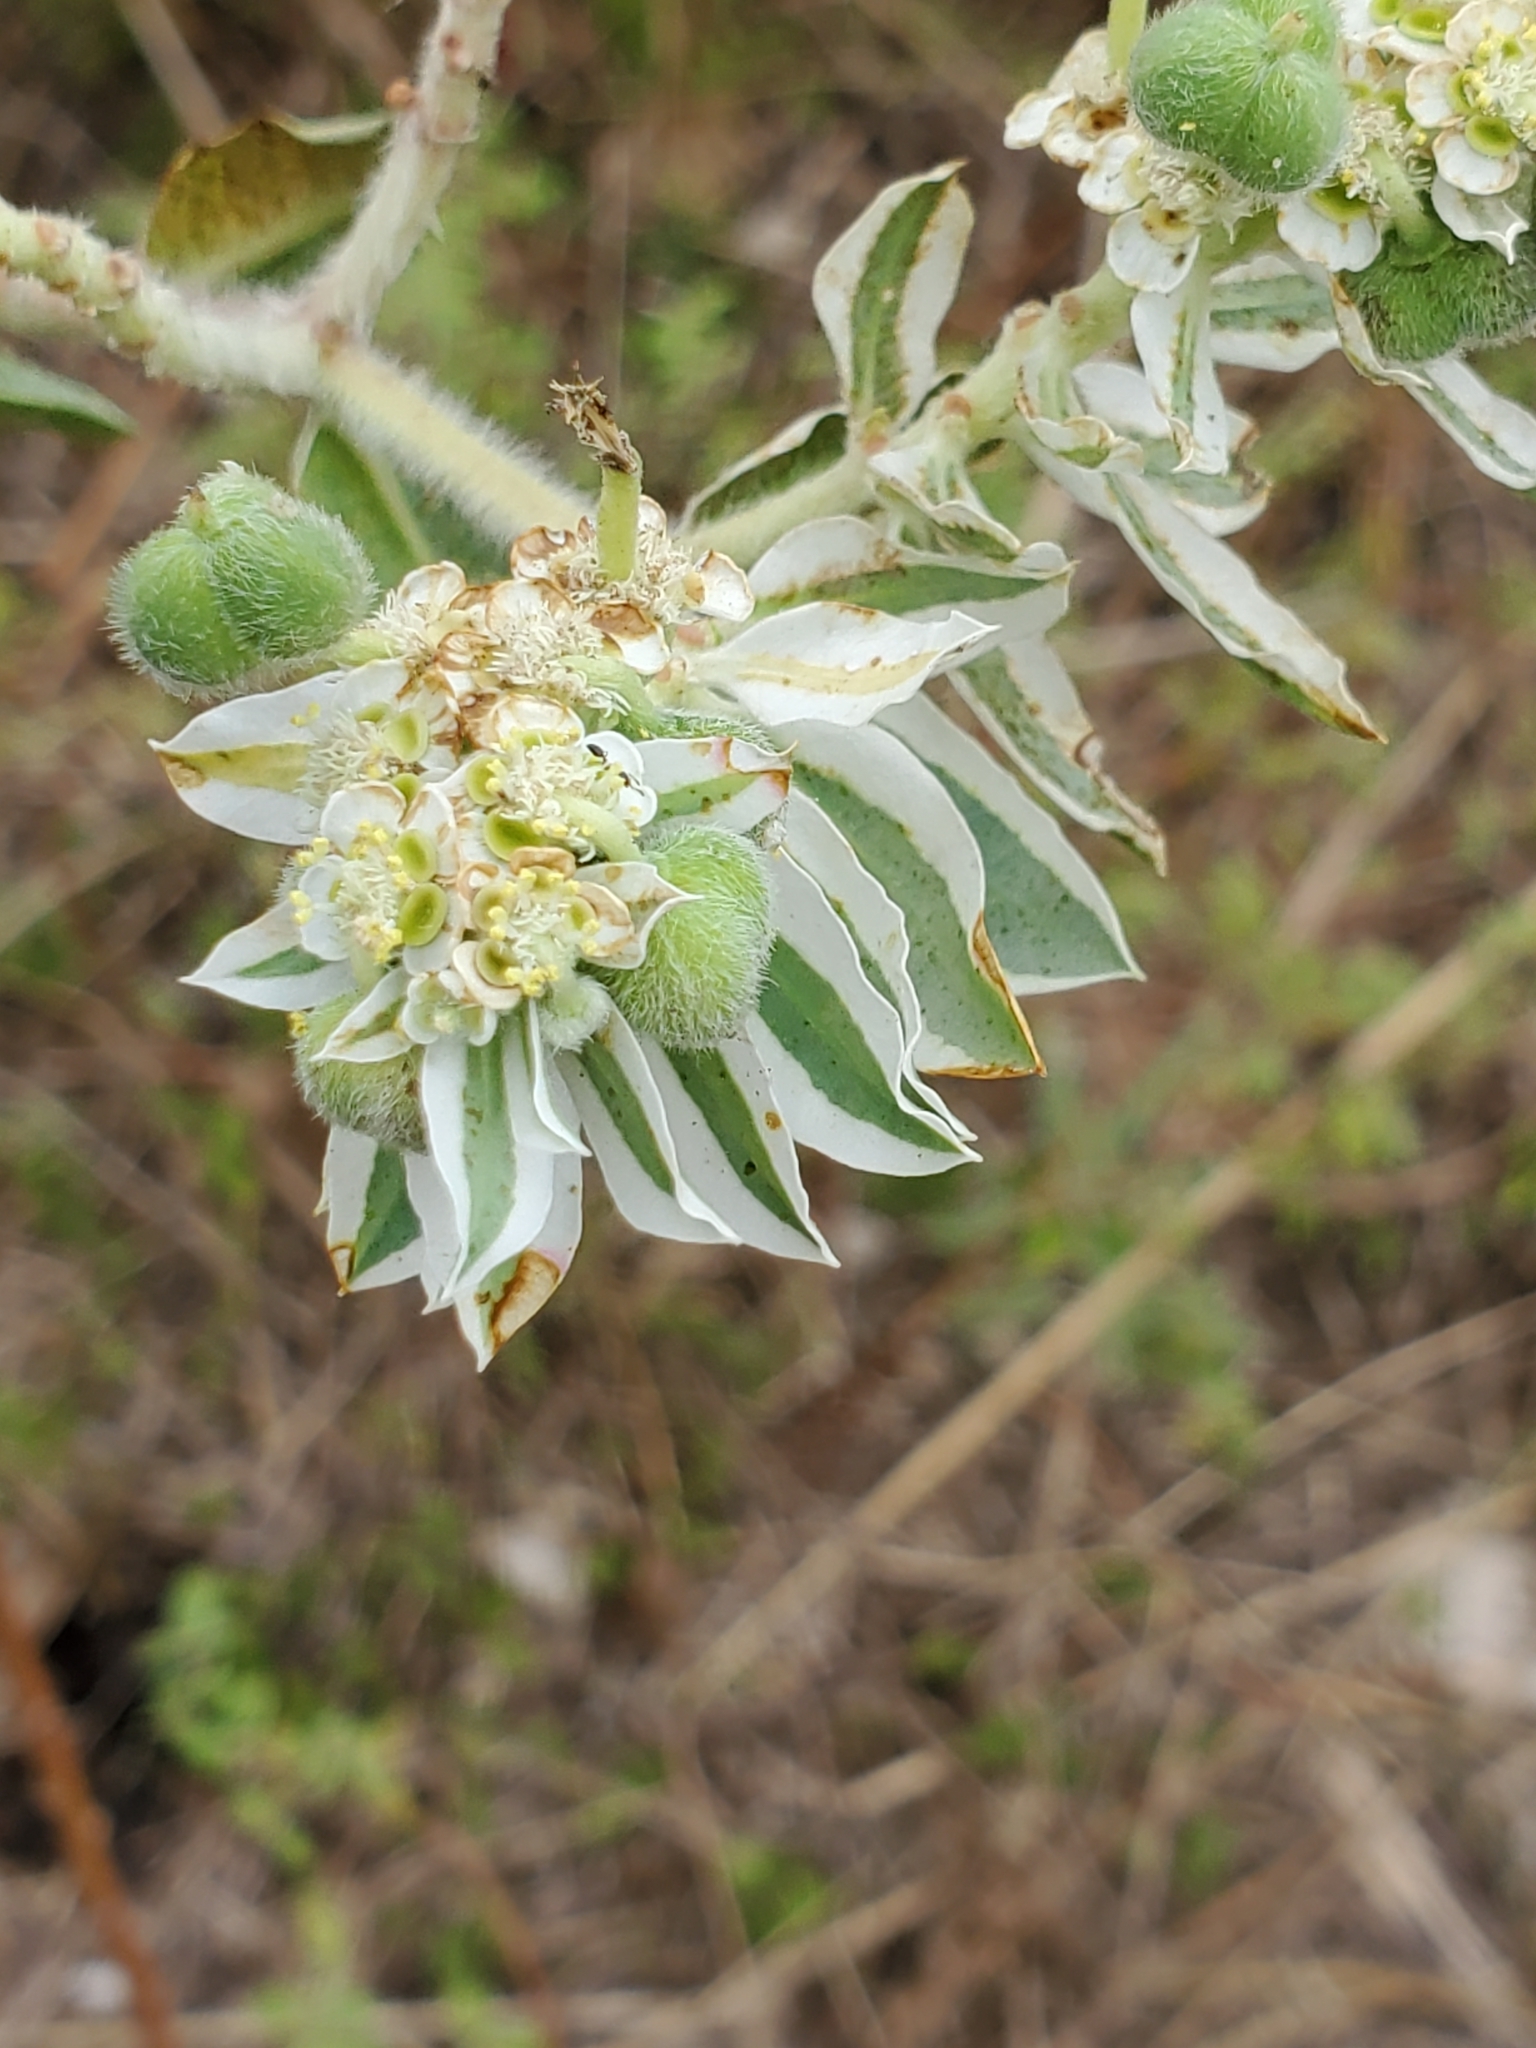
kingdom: Plantae
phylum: Tracheophyta
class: Magnoliopsida
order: Malpighiales
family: Euphorbiaceae
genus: Euphorbia
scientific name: Euphorbia marginata
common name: Ghostweed
